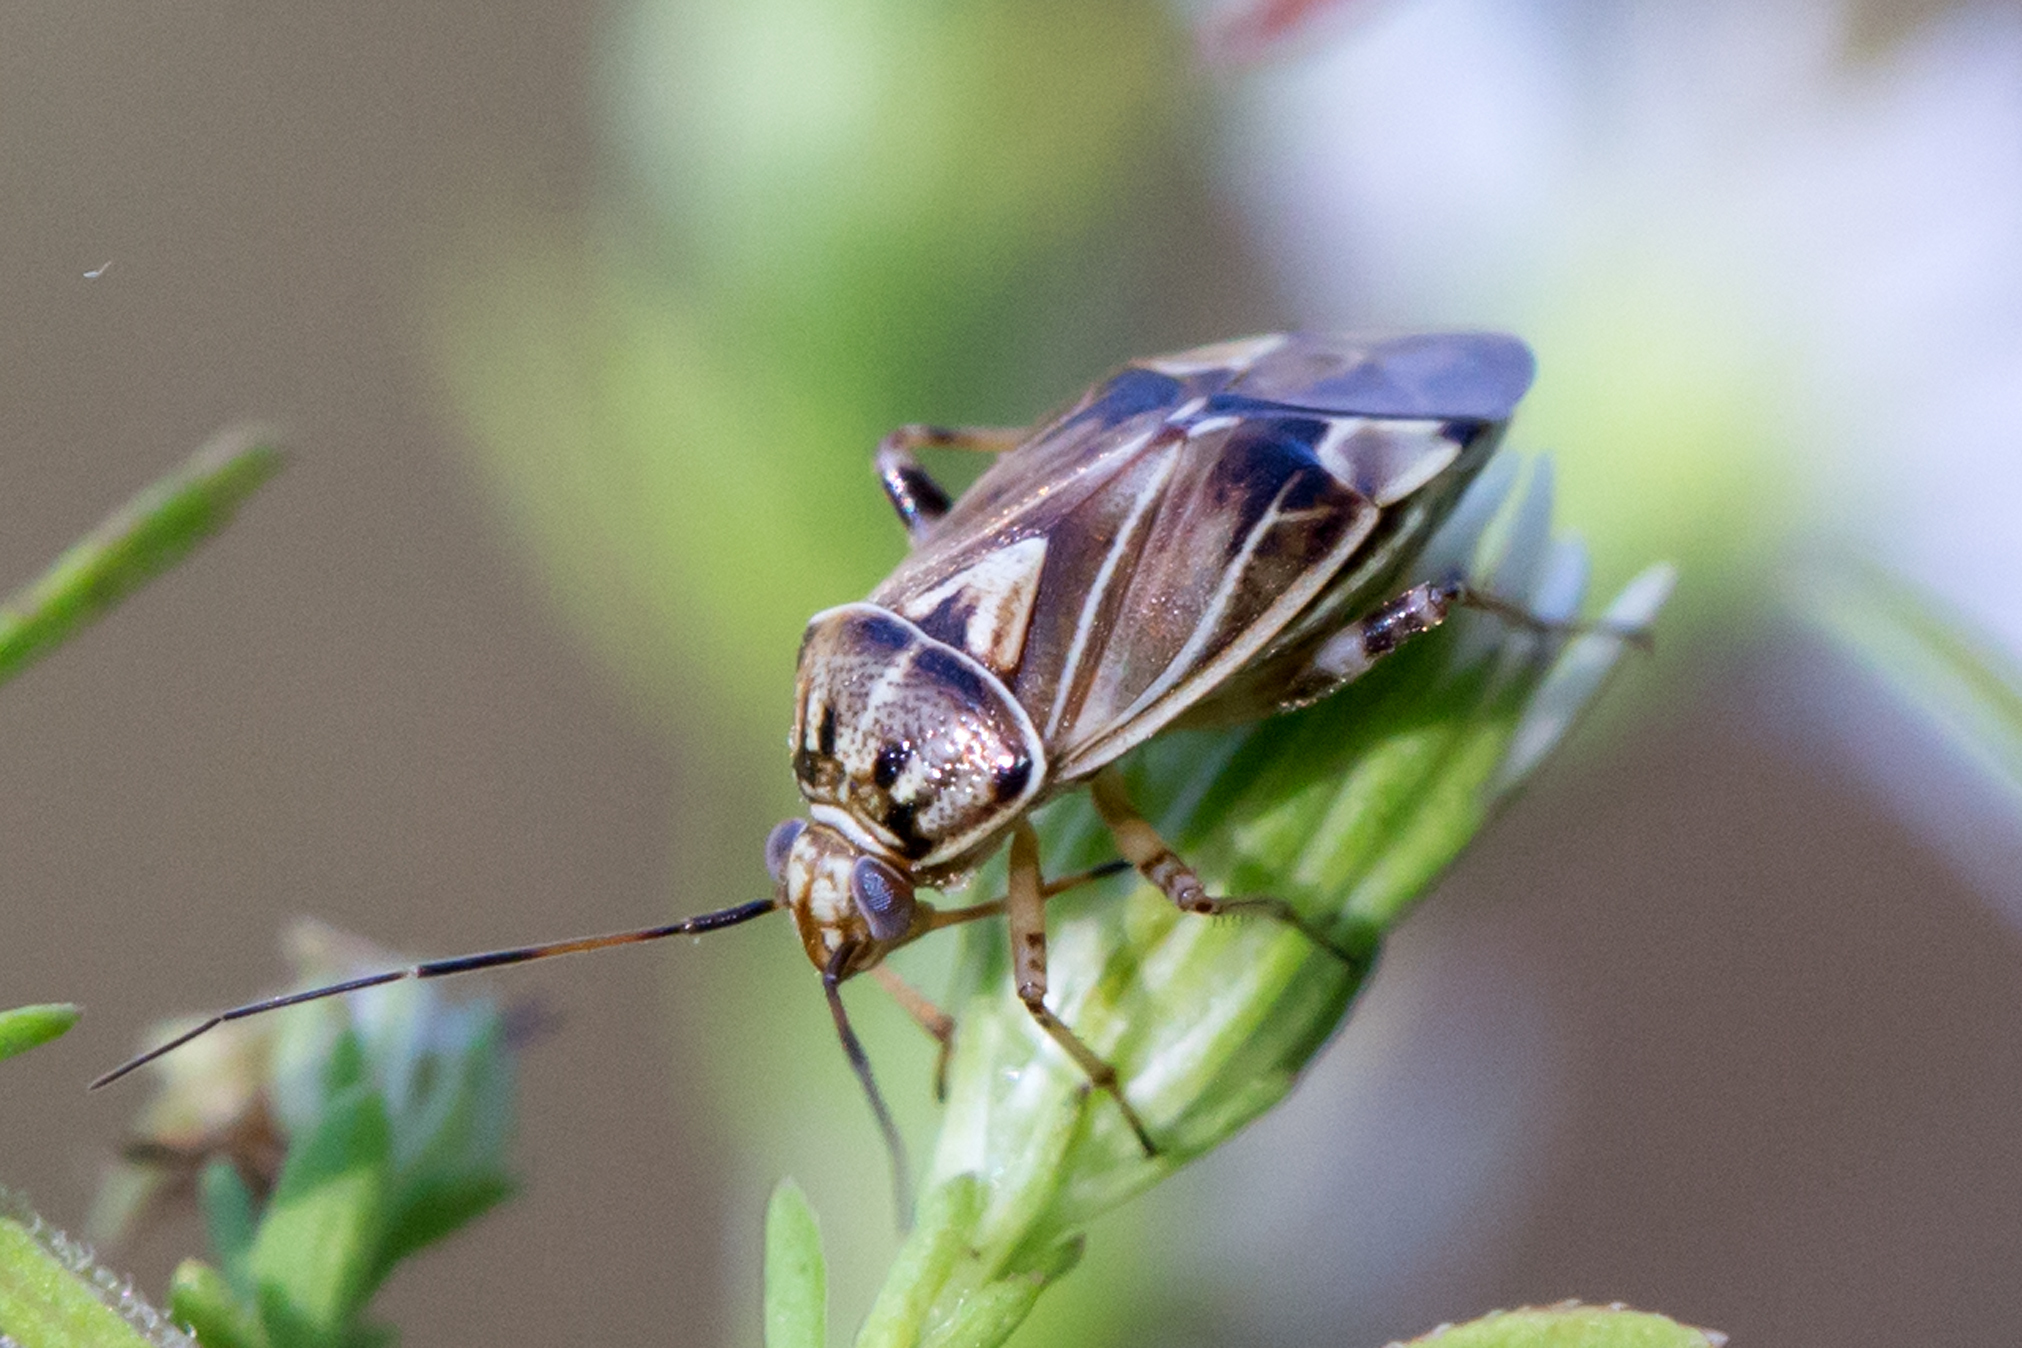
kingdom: Animalia
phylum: Arthropoda
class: Insecta
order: Hemiptera
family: Miridae
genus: Lygus
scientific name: Lygus lineolaris
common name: North american tarnished plant bug
